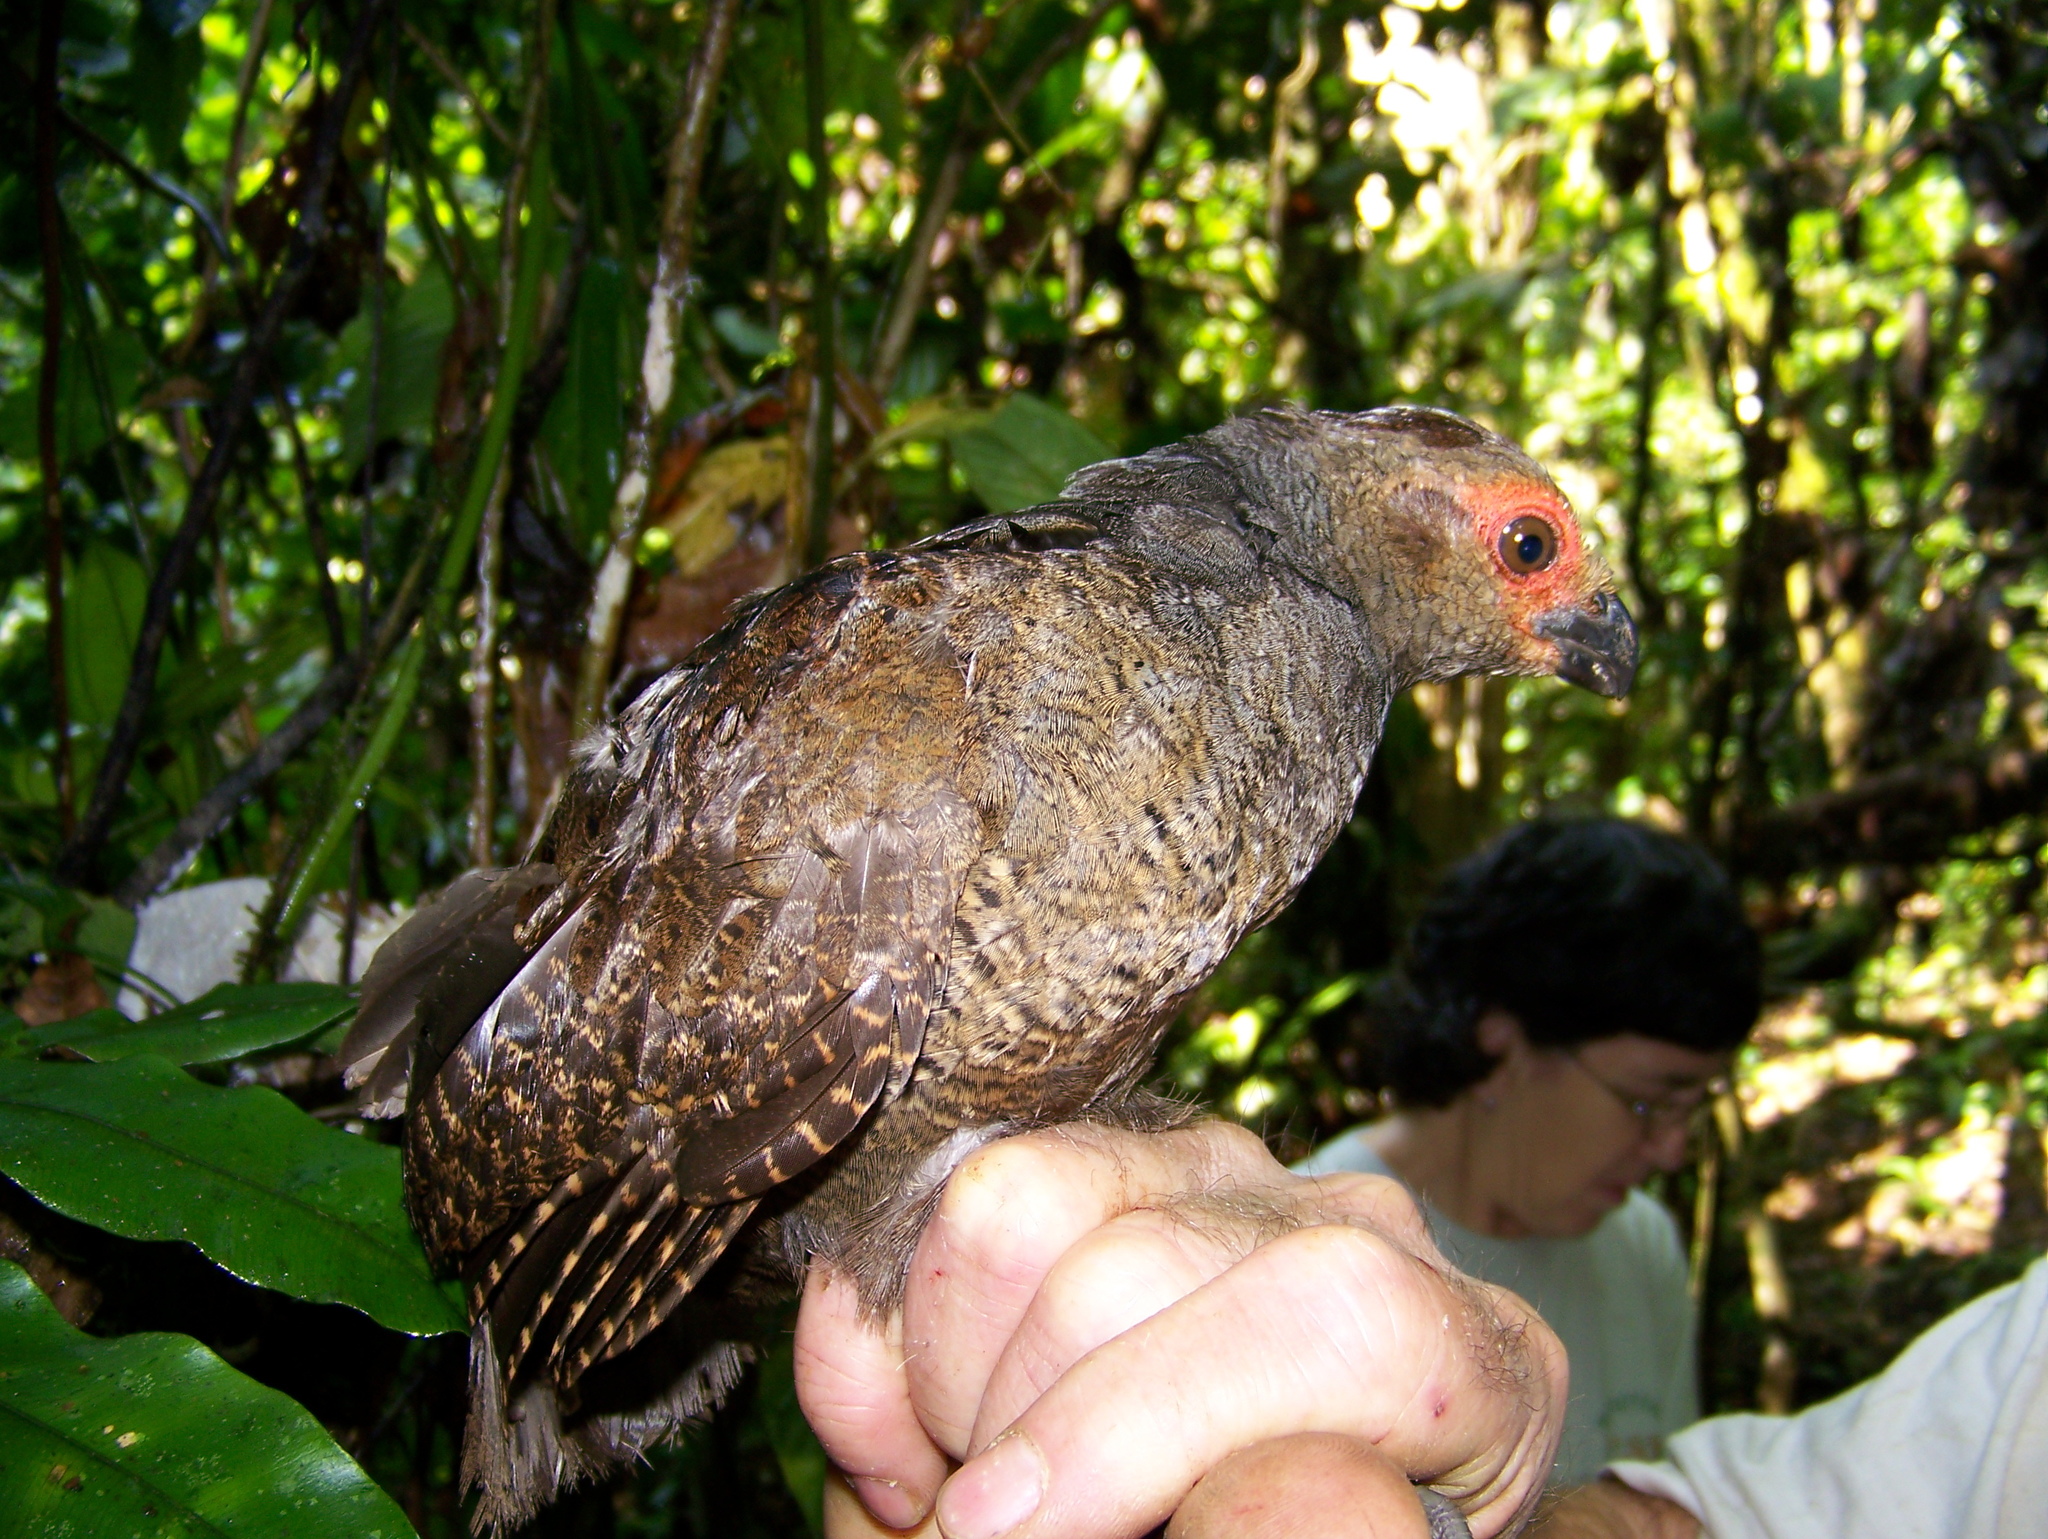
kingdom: Animalia
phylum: Chordata
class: Aves
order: Galliformes
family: Odontophoridae
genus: Odontophorus
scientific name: Odontophorus gujanensis
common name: Marbled wood-quail
